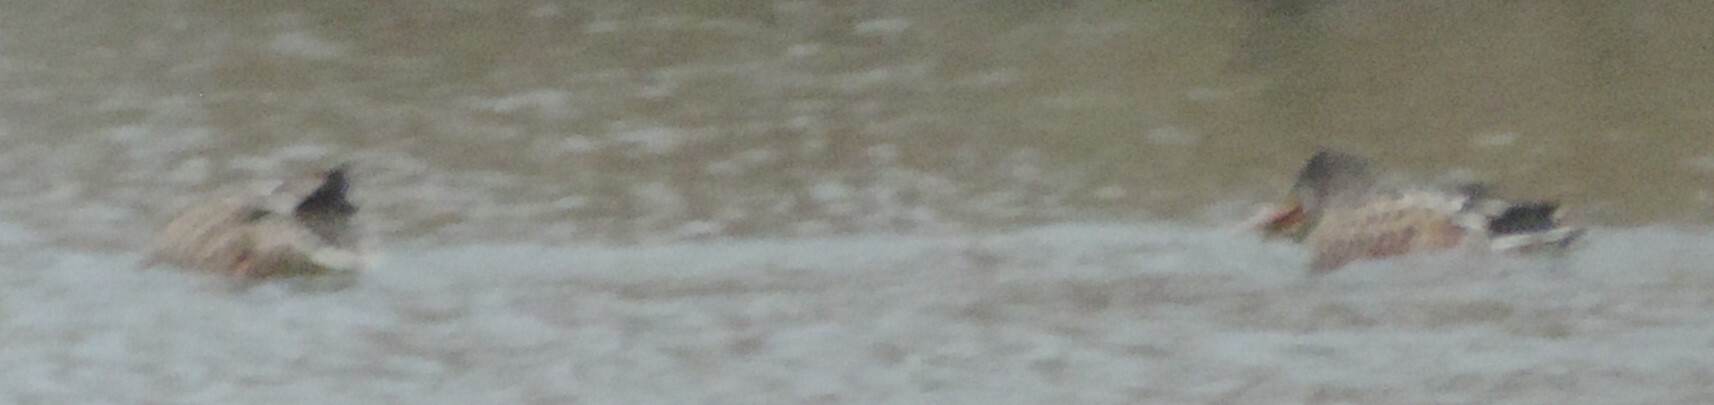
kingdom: Animalia
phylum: Chordata
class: Aves
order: Anseriformes
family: Anatidae
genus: Spatula
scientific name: Spatula clypeata
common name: Northern shoveler
